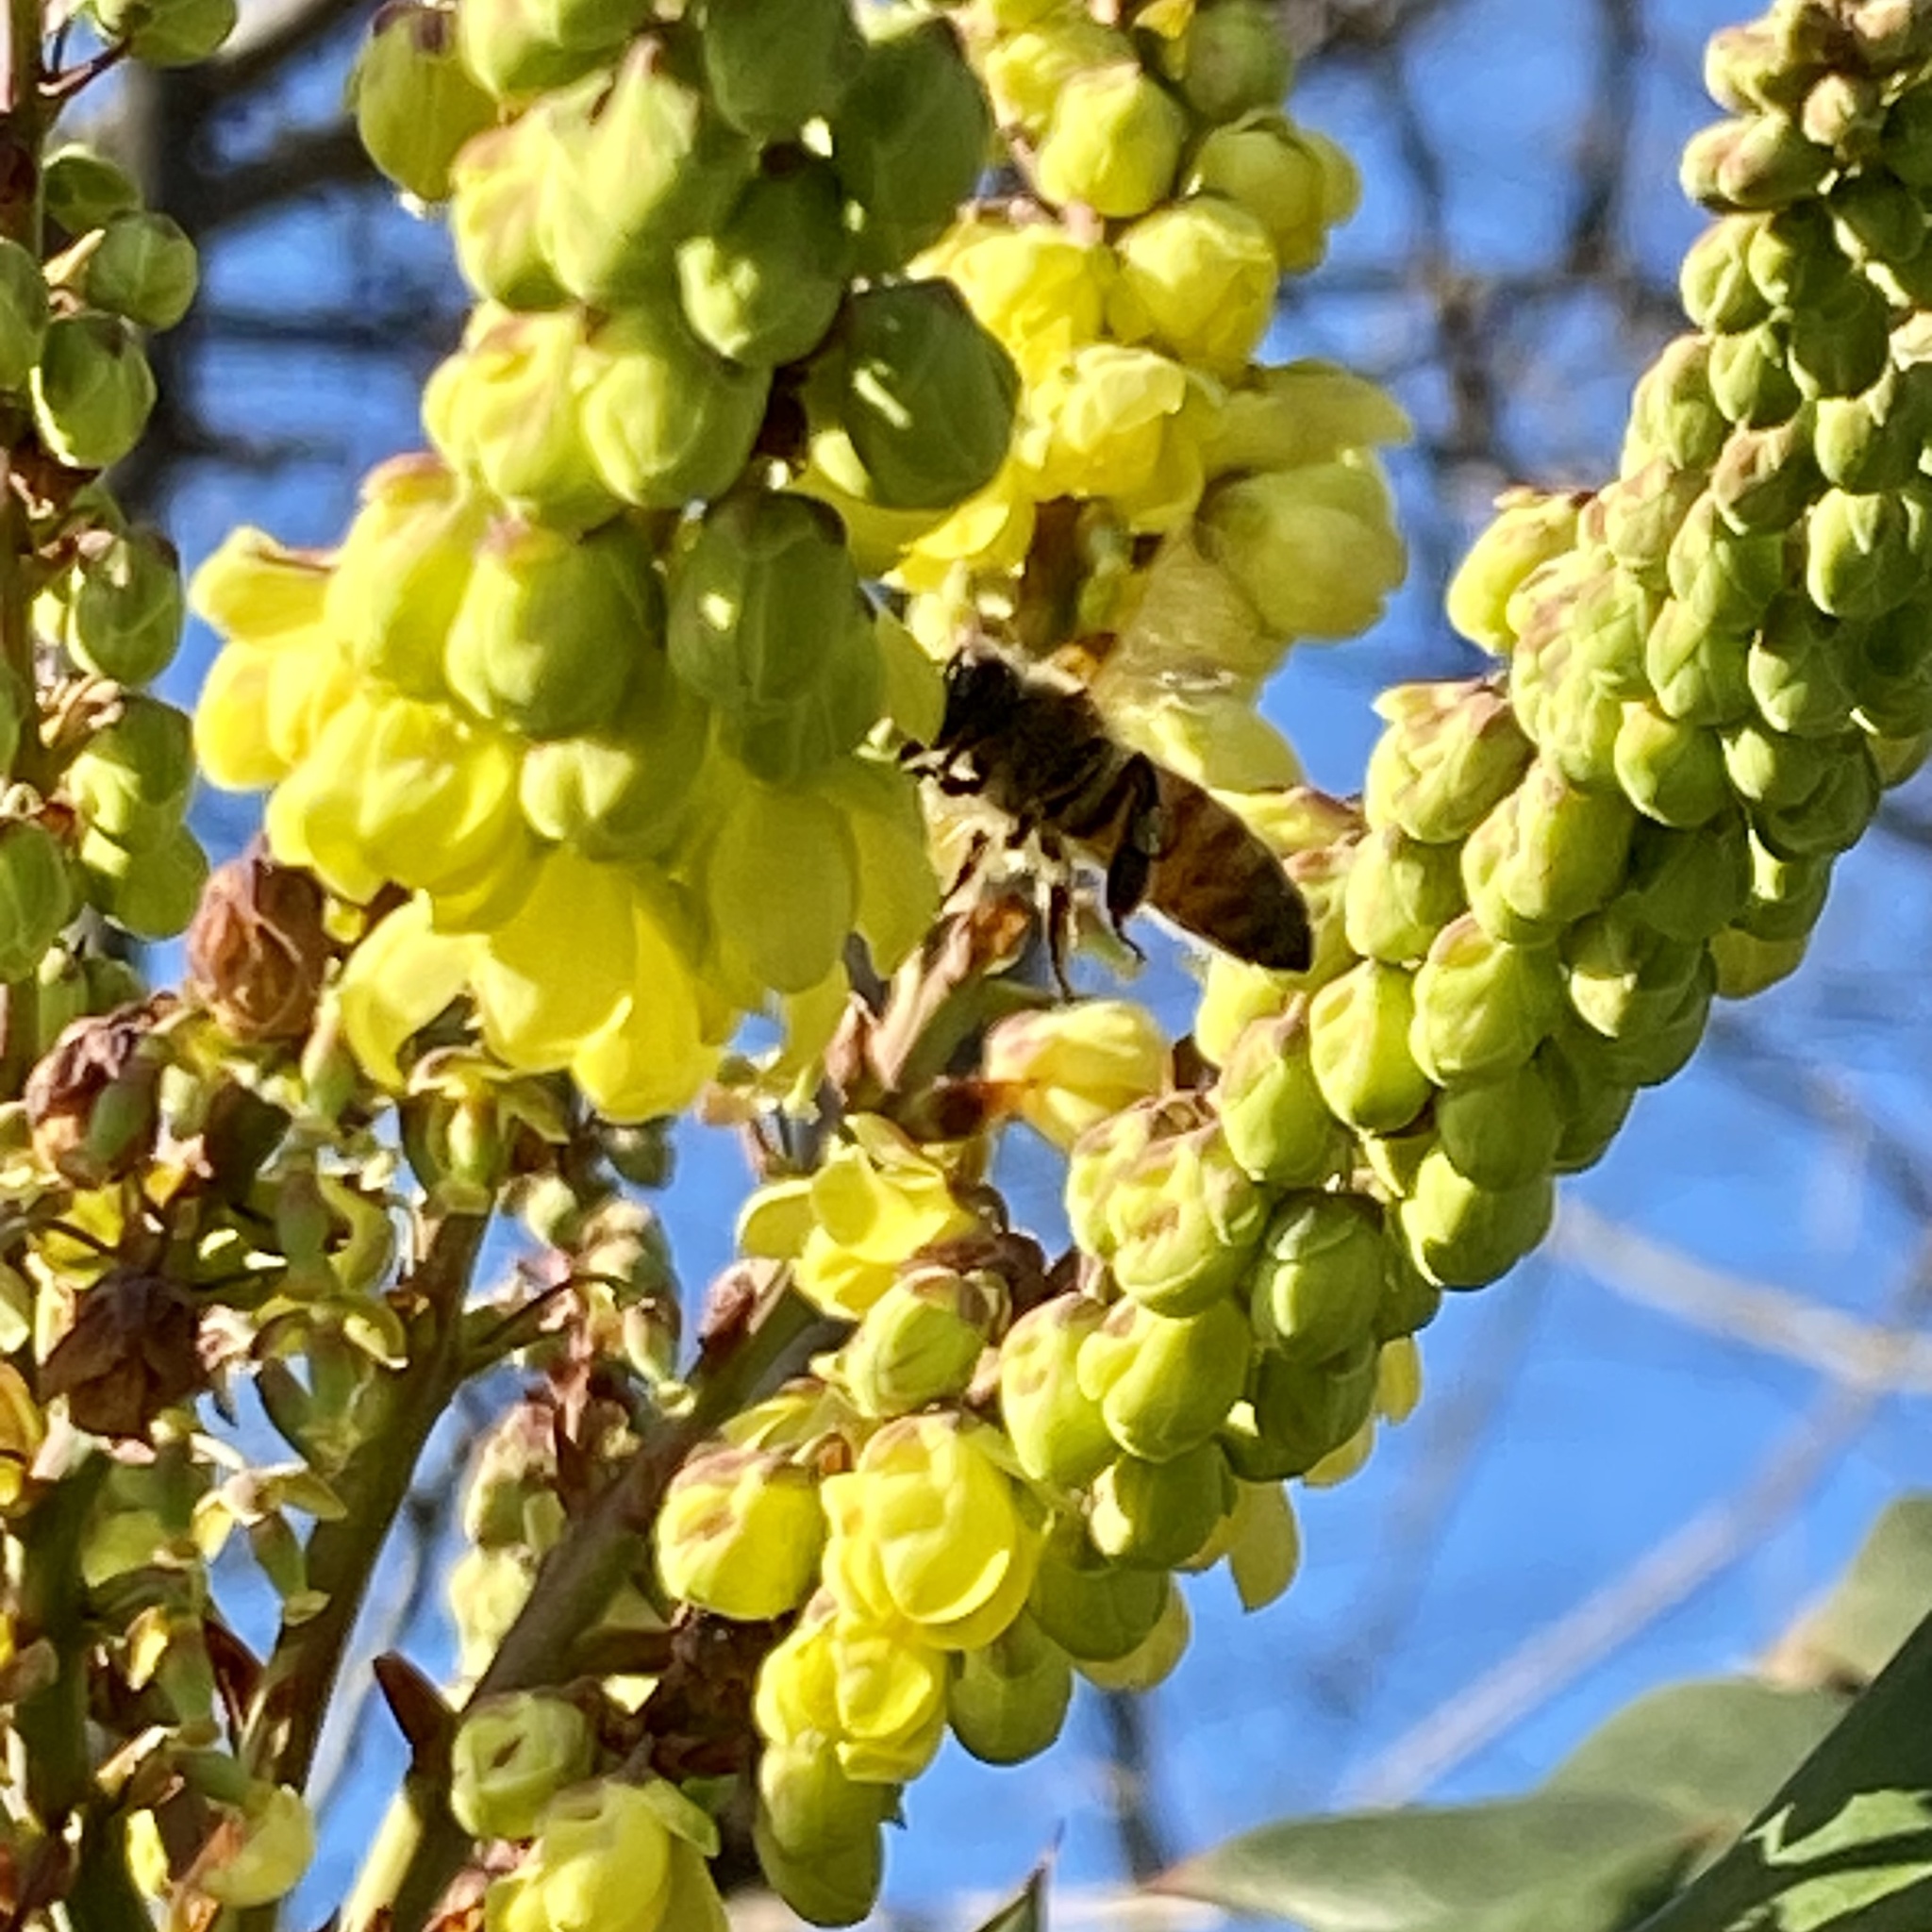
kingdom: Animalia
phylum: Arthropoda
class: Insecta
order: Hymenoptera
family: Apidae
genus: Apis
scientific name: Apis mellifera
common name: Honey bee
